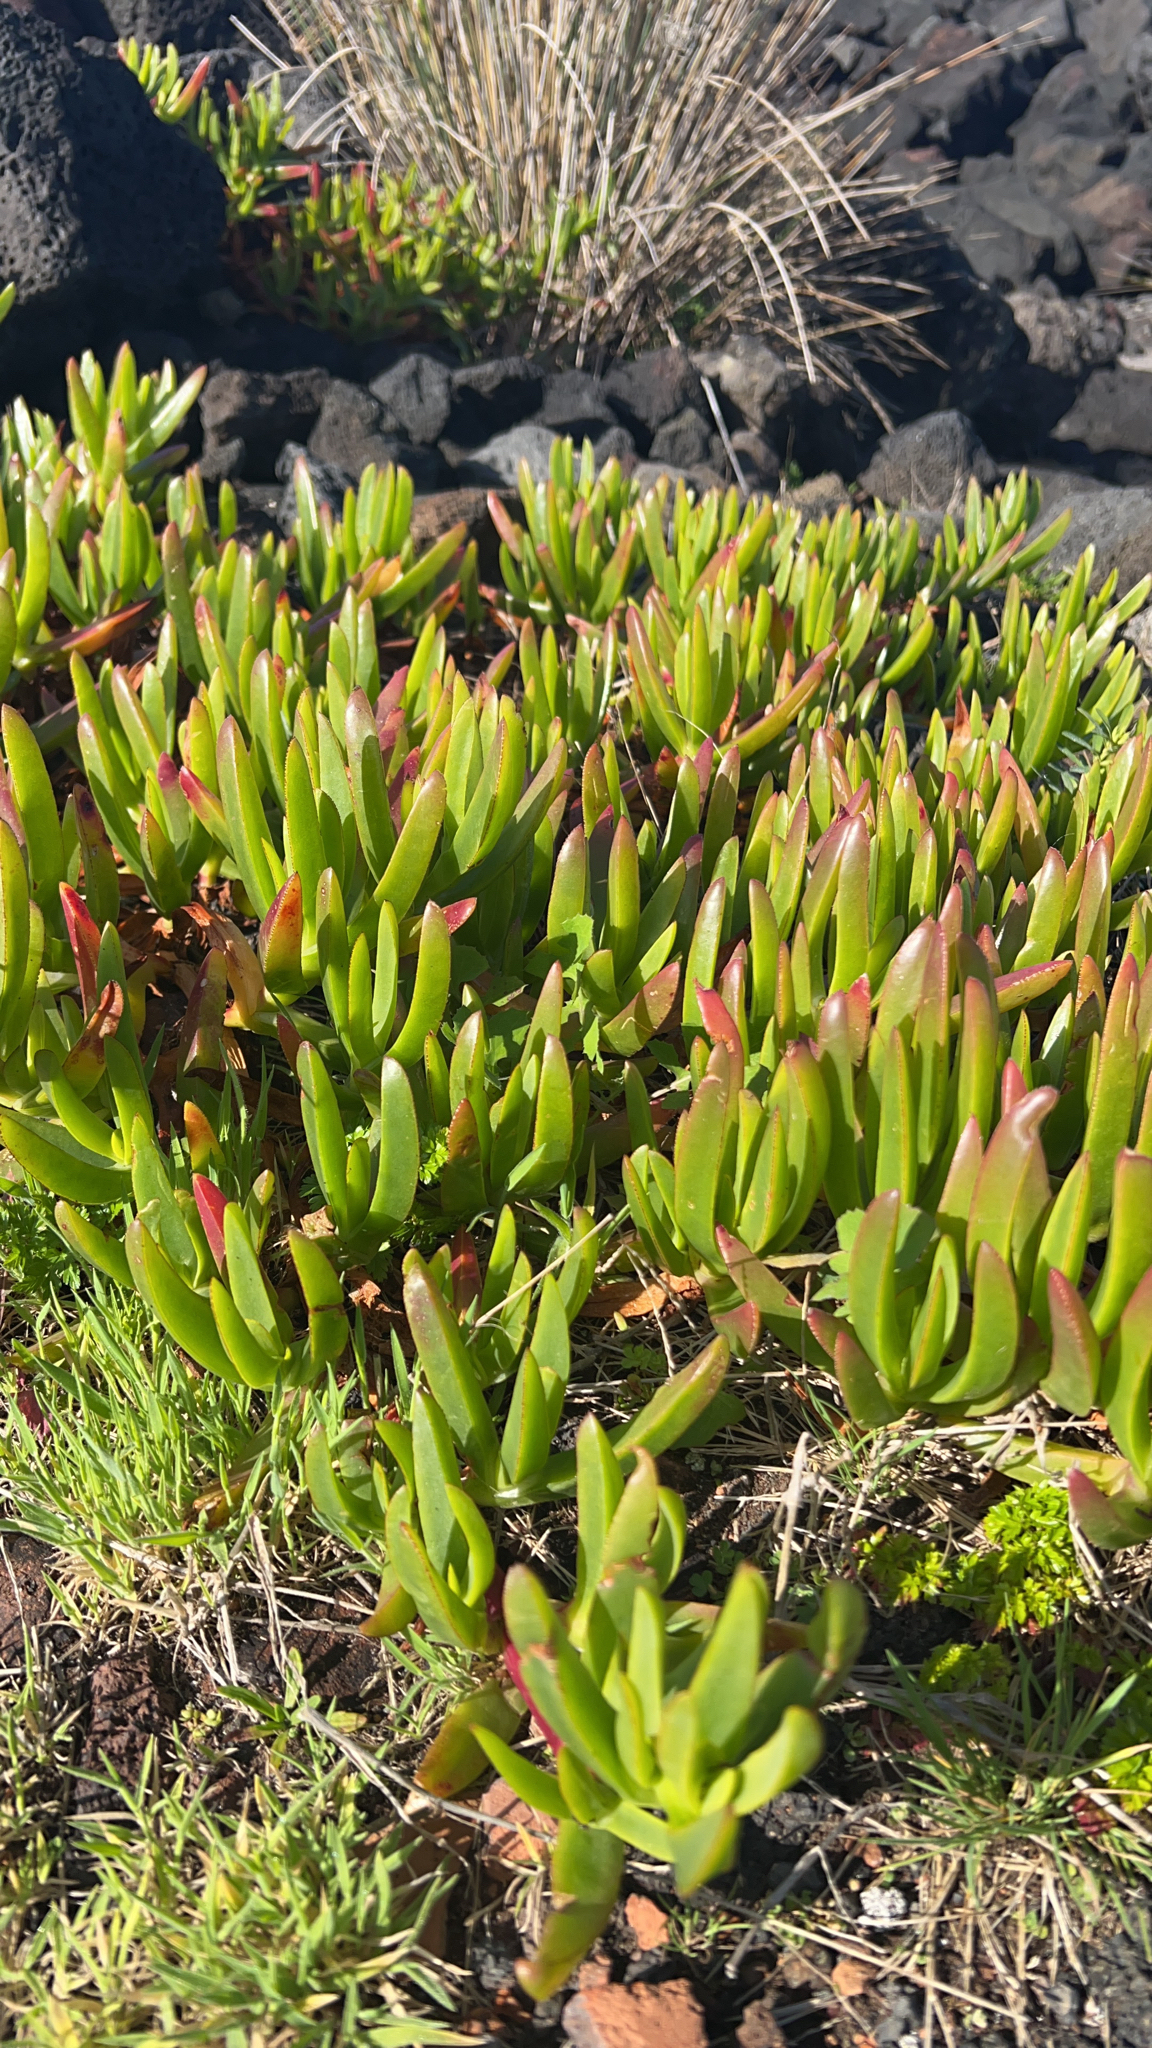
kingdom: Plantae
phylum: Tracheophyta
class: Magnoliopsida
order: Caryophyllales
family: Aizoaceae
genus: Carpobrotus
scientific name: Carpobrotus edulis
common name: Hottentot-fig
